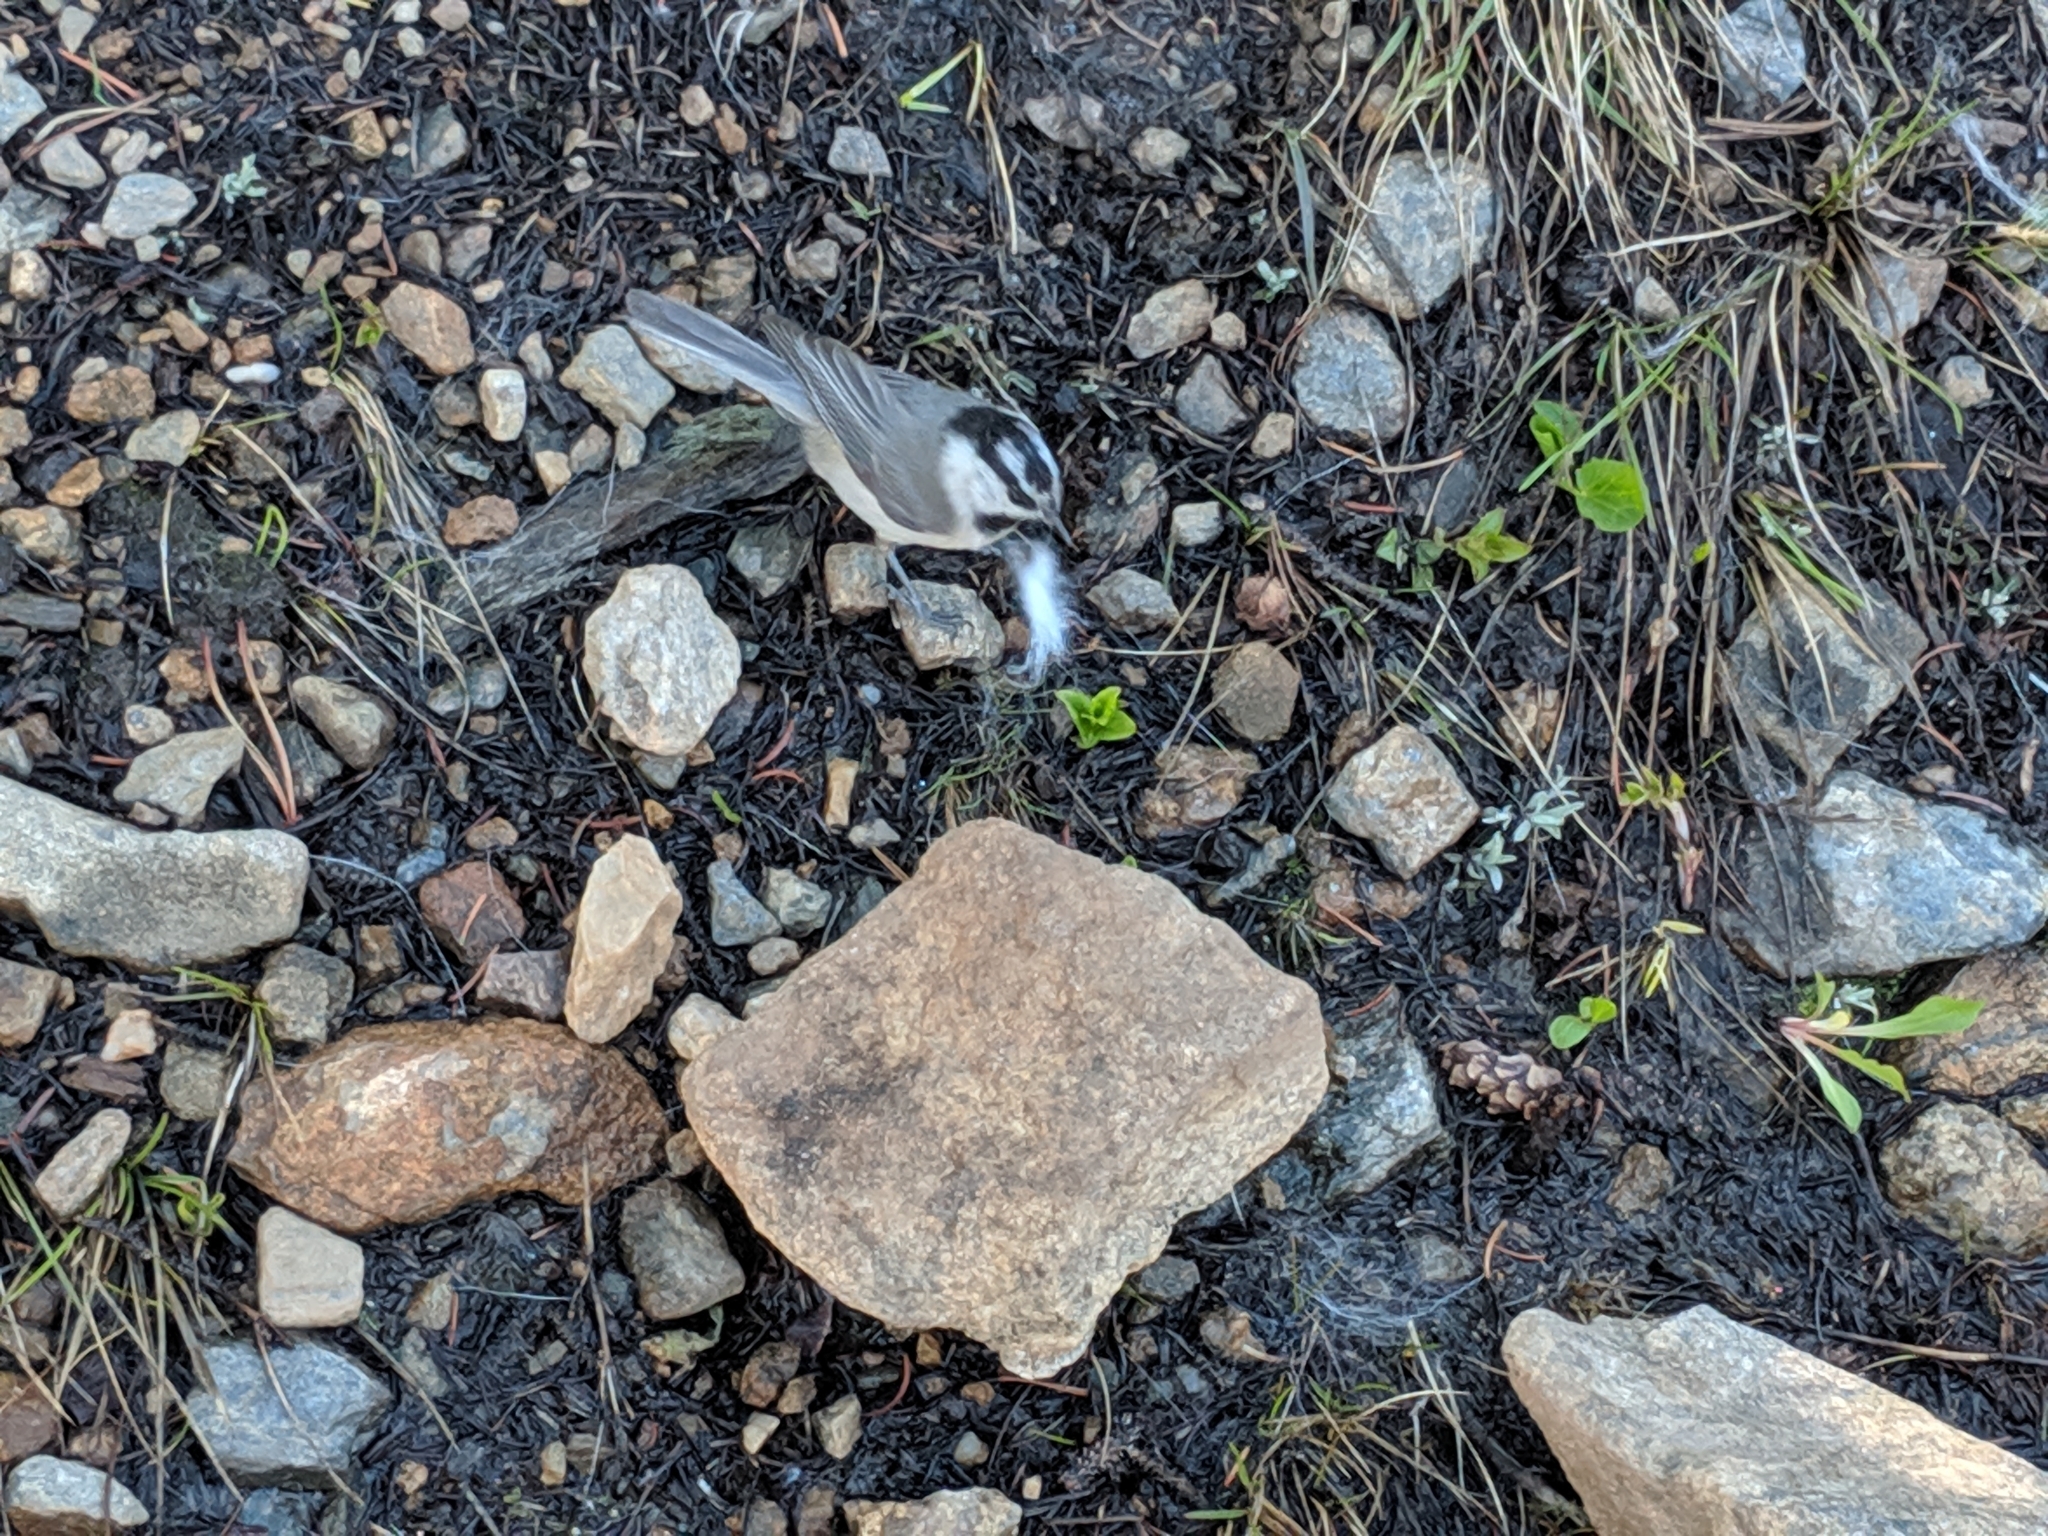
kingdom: Animalia
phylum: Chordata
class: Aves
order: Passeriformes
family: Paridae
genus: Poecile
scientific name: Poecile gambeli
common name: Mountain chickadee
